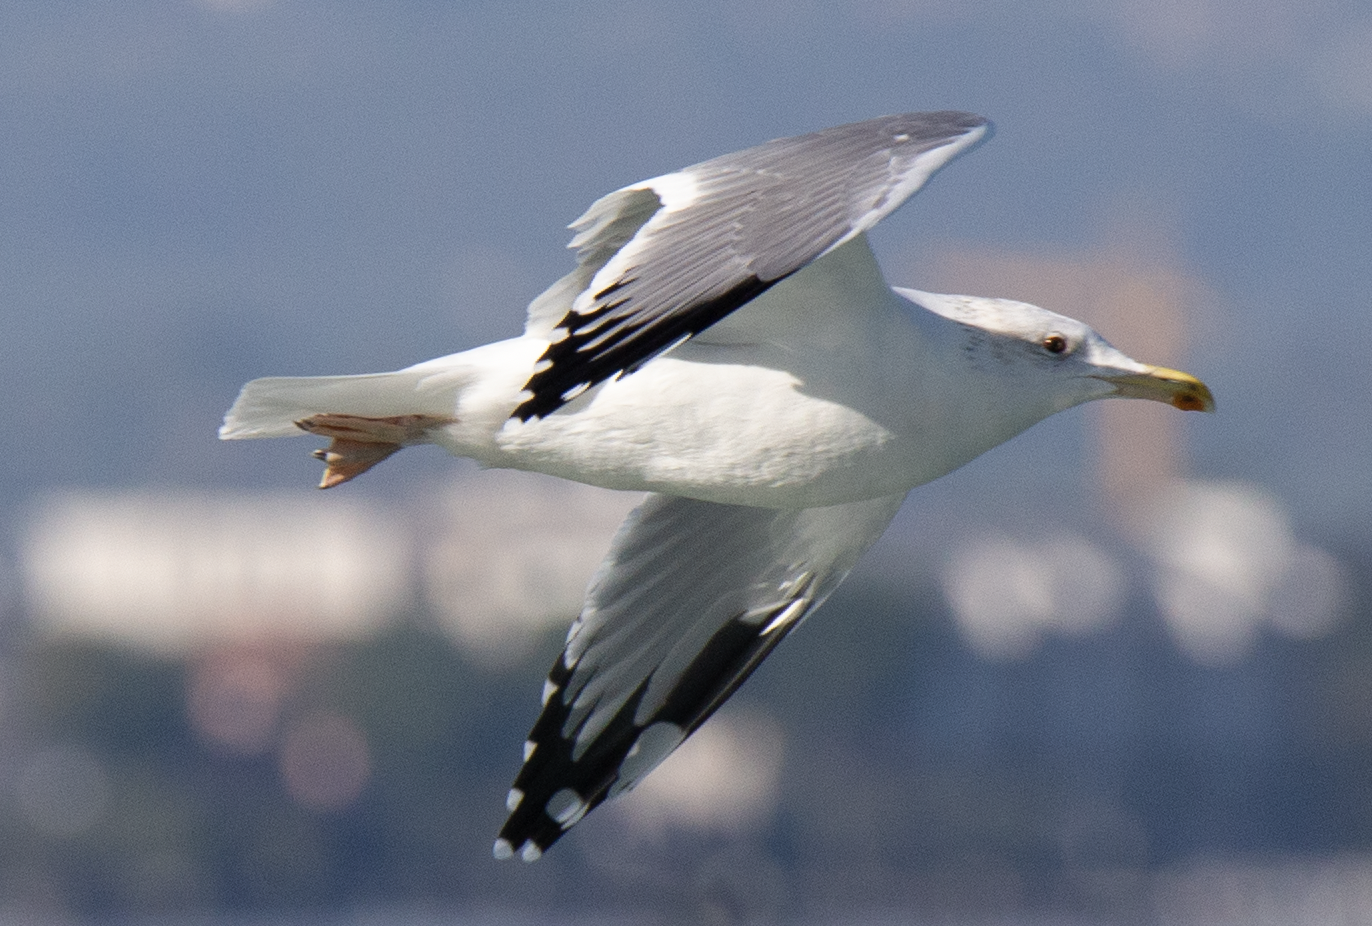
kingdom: Animalia
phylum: Chordata
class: Aves
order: Charadriiformes
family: Laridae
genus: Larus
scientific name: Larus michahellis
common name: Yellow-legged gull
